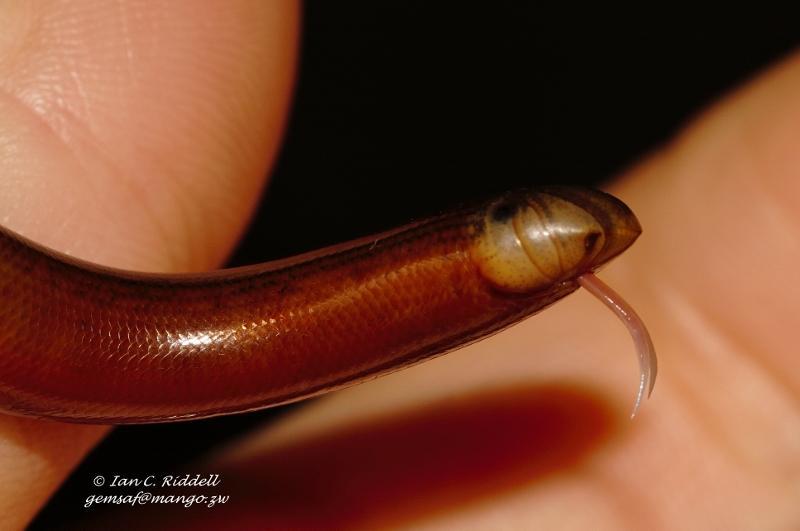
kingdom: Animalia
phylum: Chordata
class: Squamata
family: Typhlopidae
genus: Afrotyphlops
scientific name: Afrotyphlops mucruso
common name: Zambezi blind snake
